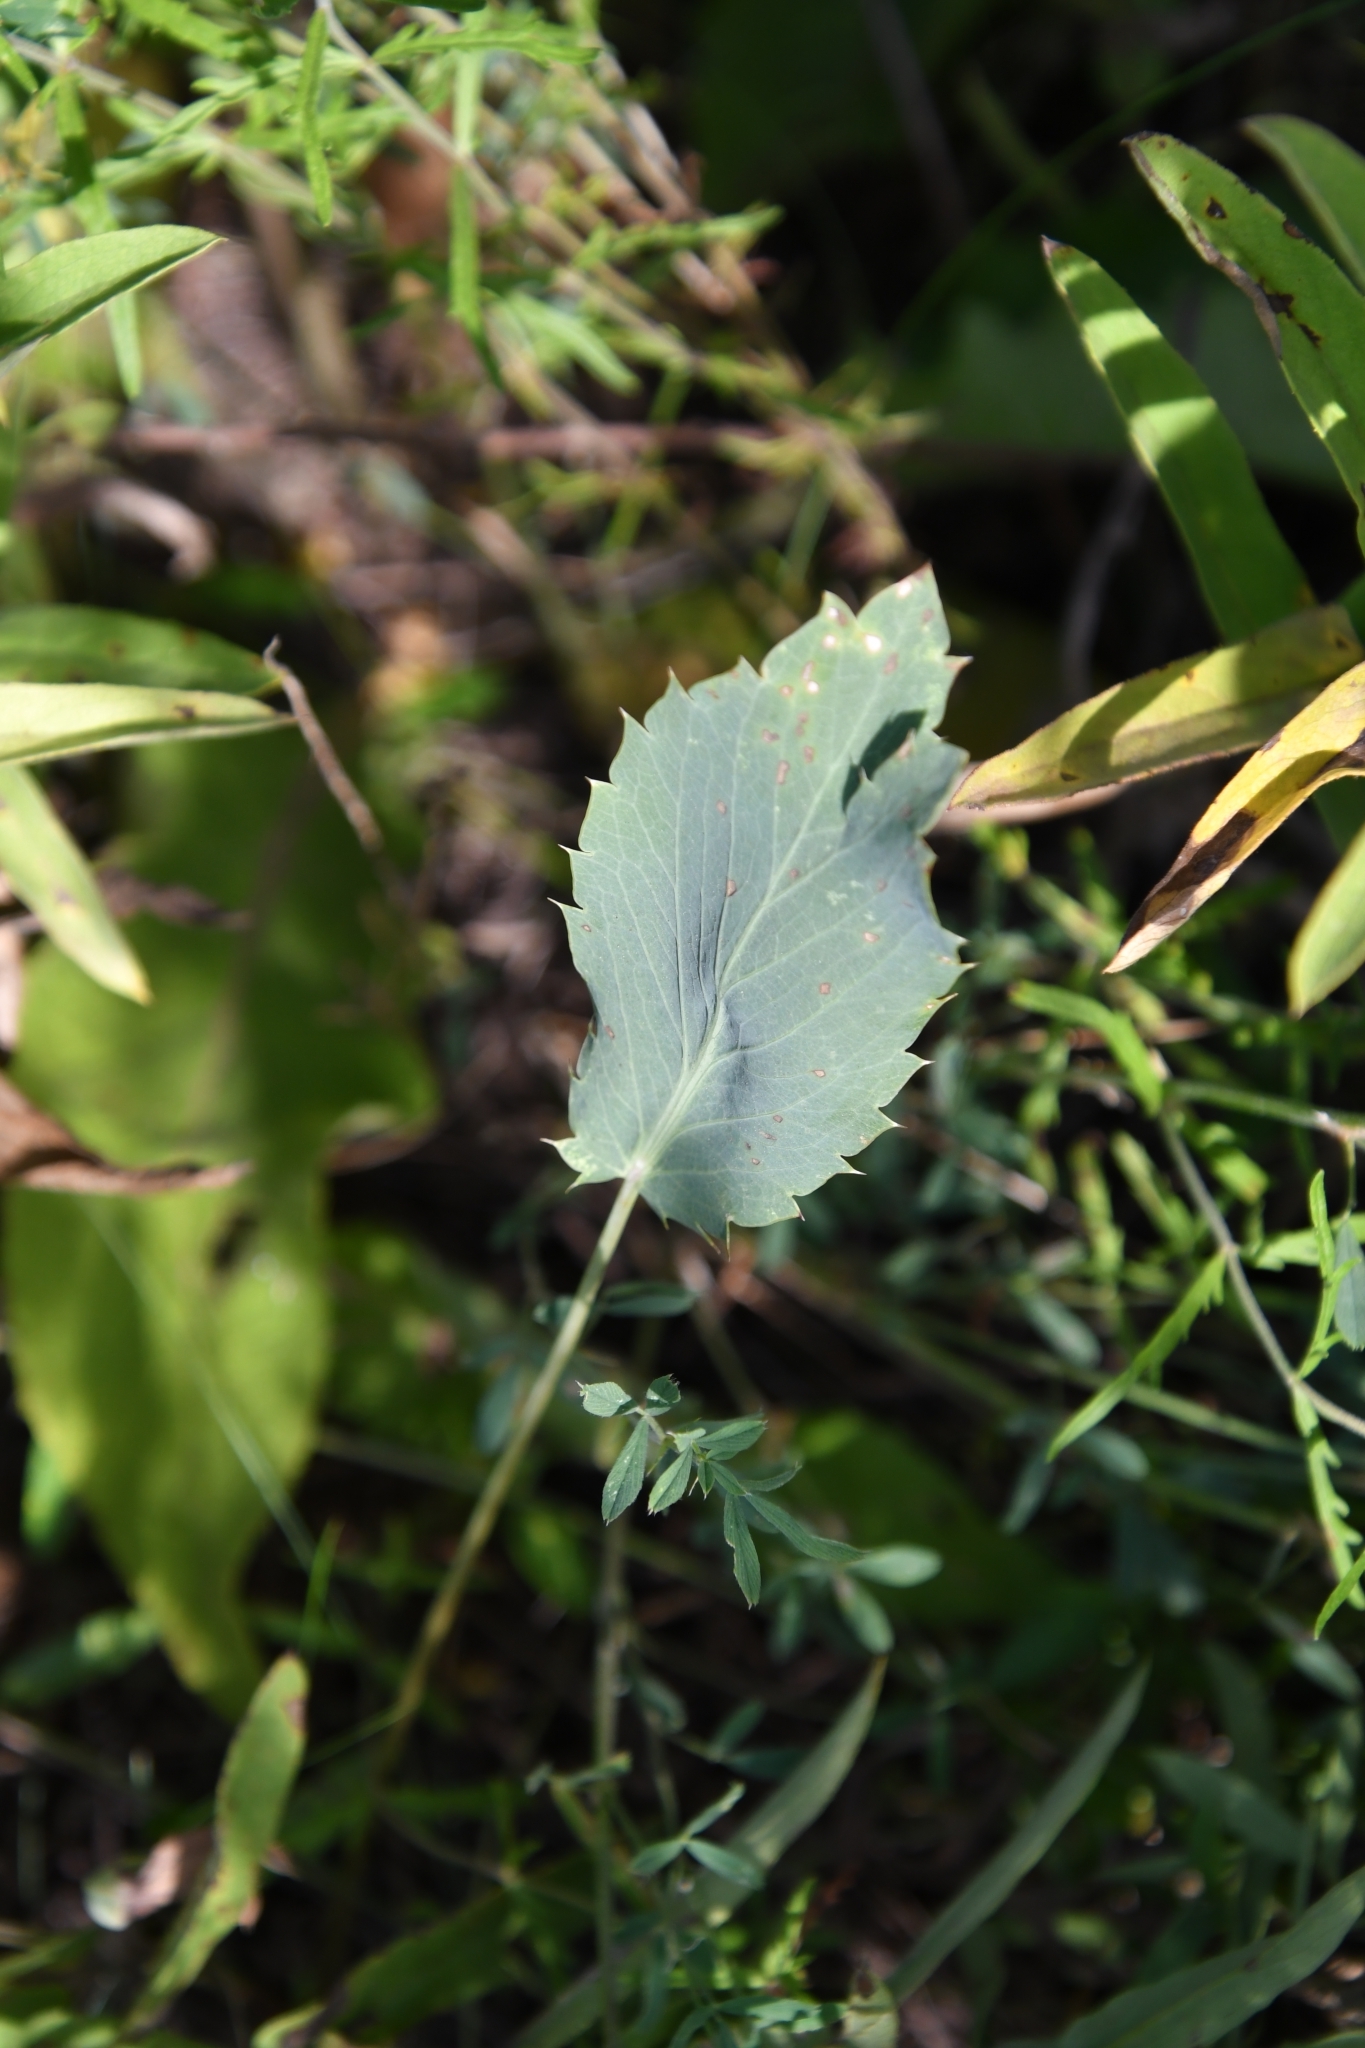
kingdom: Plantae
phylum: Tracheophyta
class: Magnoliopsida
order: Apiales
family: Apiaceae
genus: Eryngium
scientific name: Eryngium campestre
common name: Field eryngo
